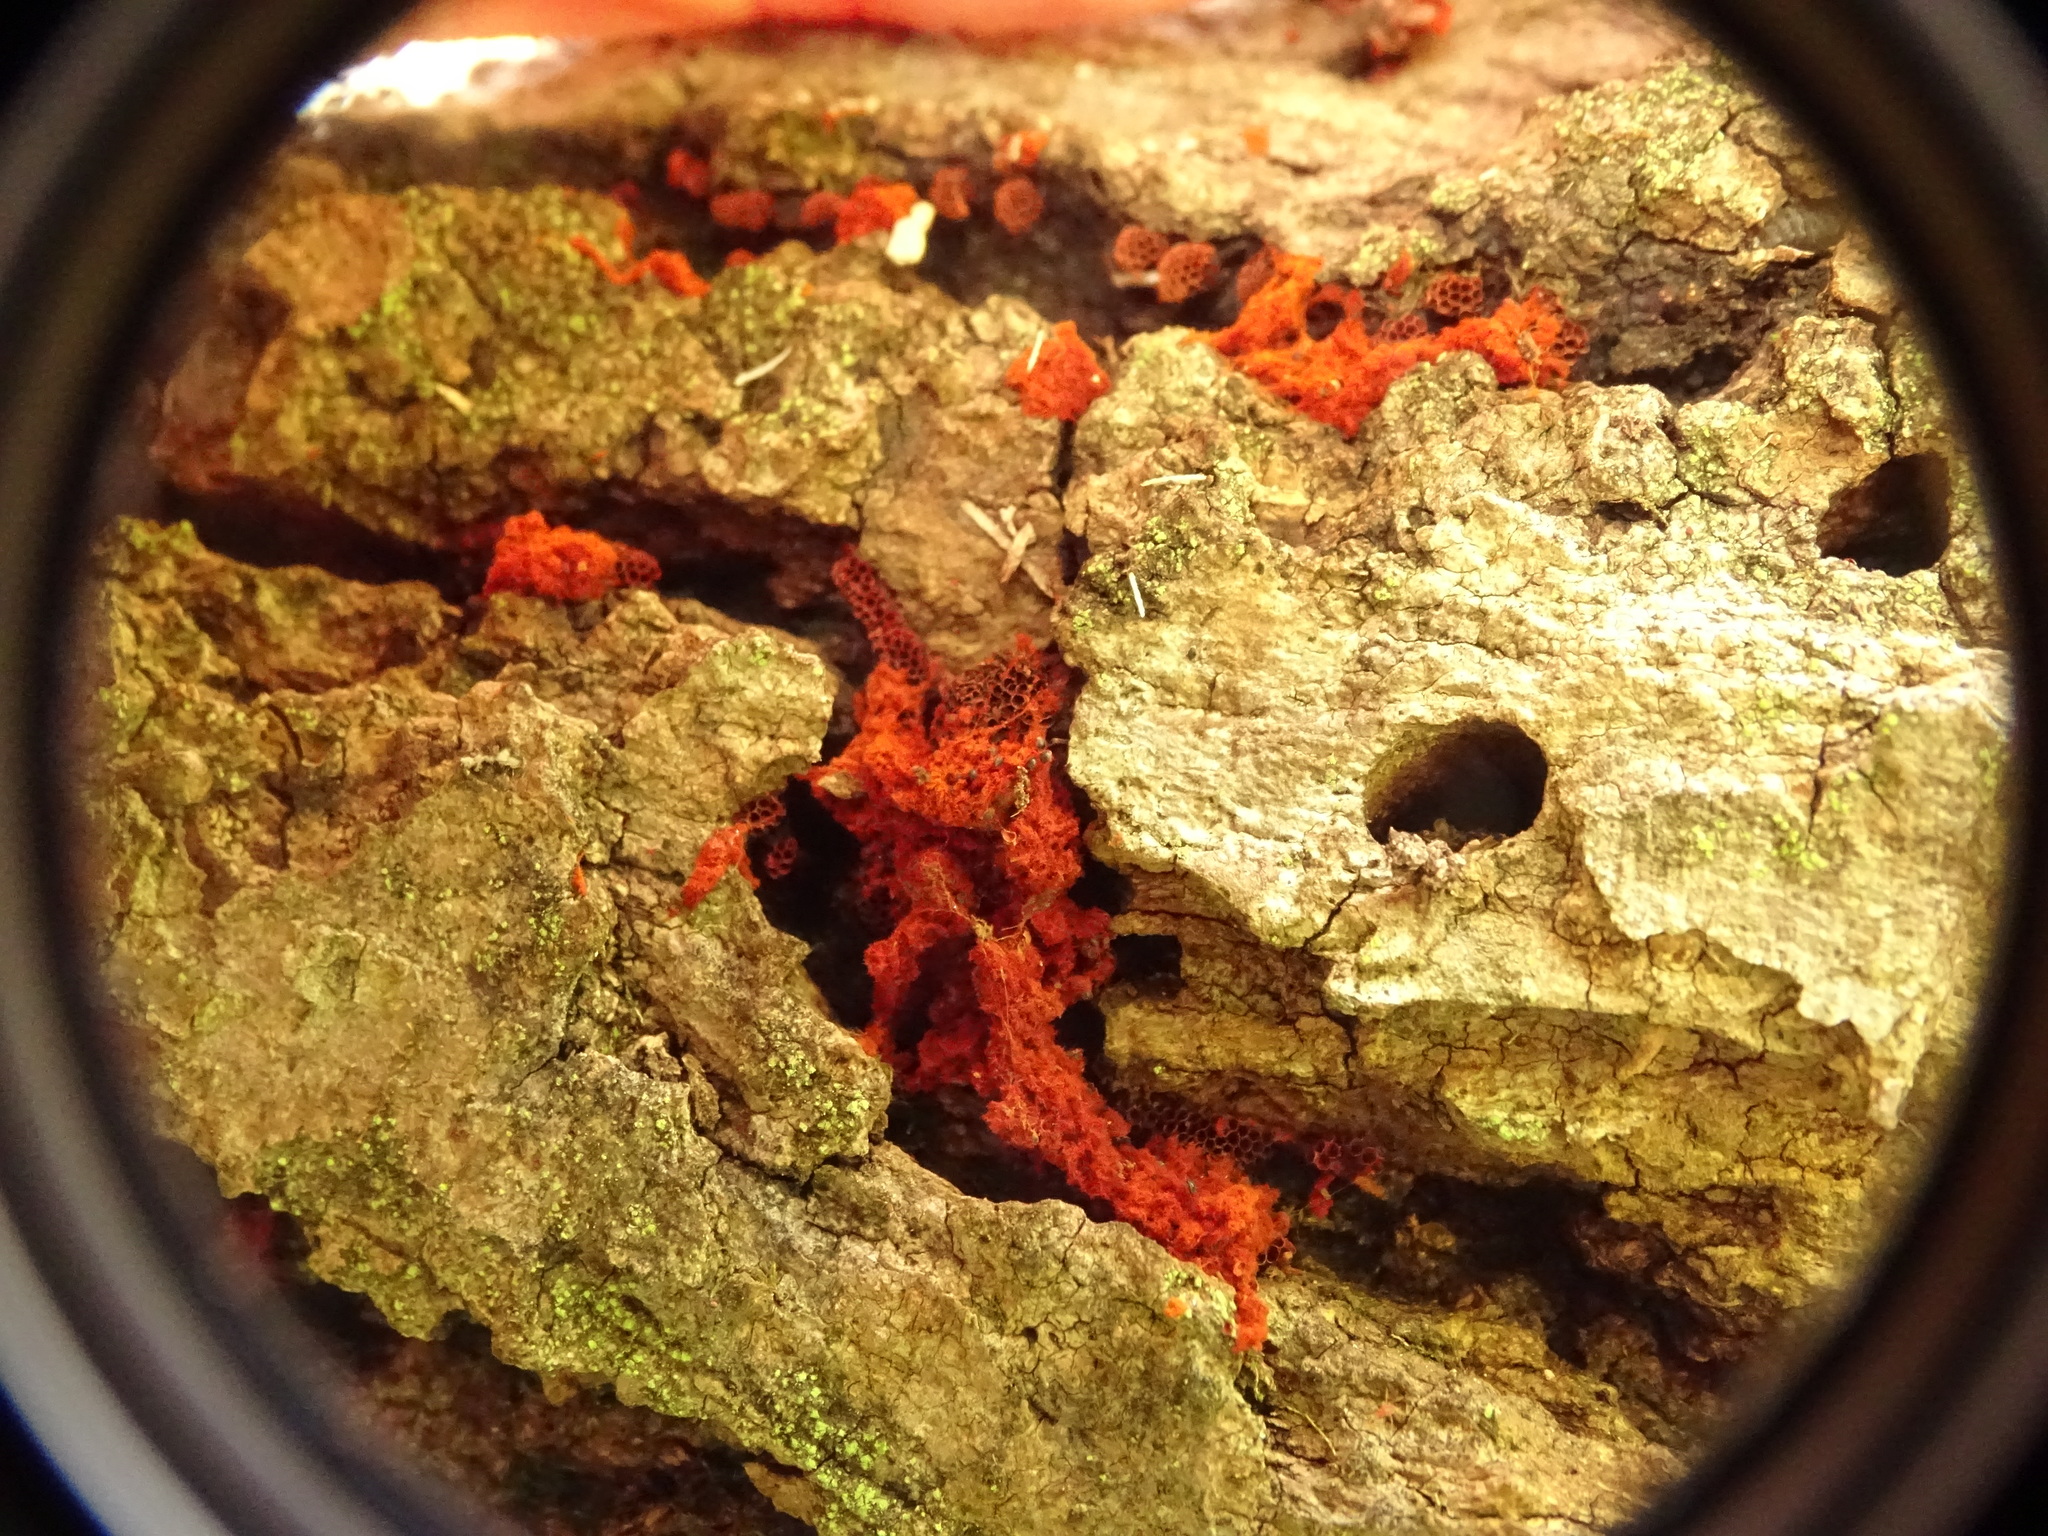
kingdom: Protozoa
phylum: Mycetozoa
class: Myxomycetes
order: Trichiales
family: Trichiaceae
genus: Metatrichia
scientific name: Metatrichia vesparia
